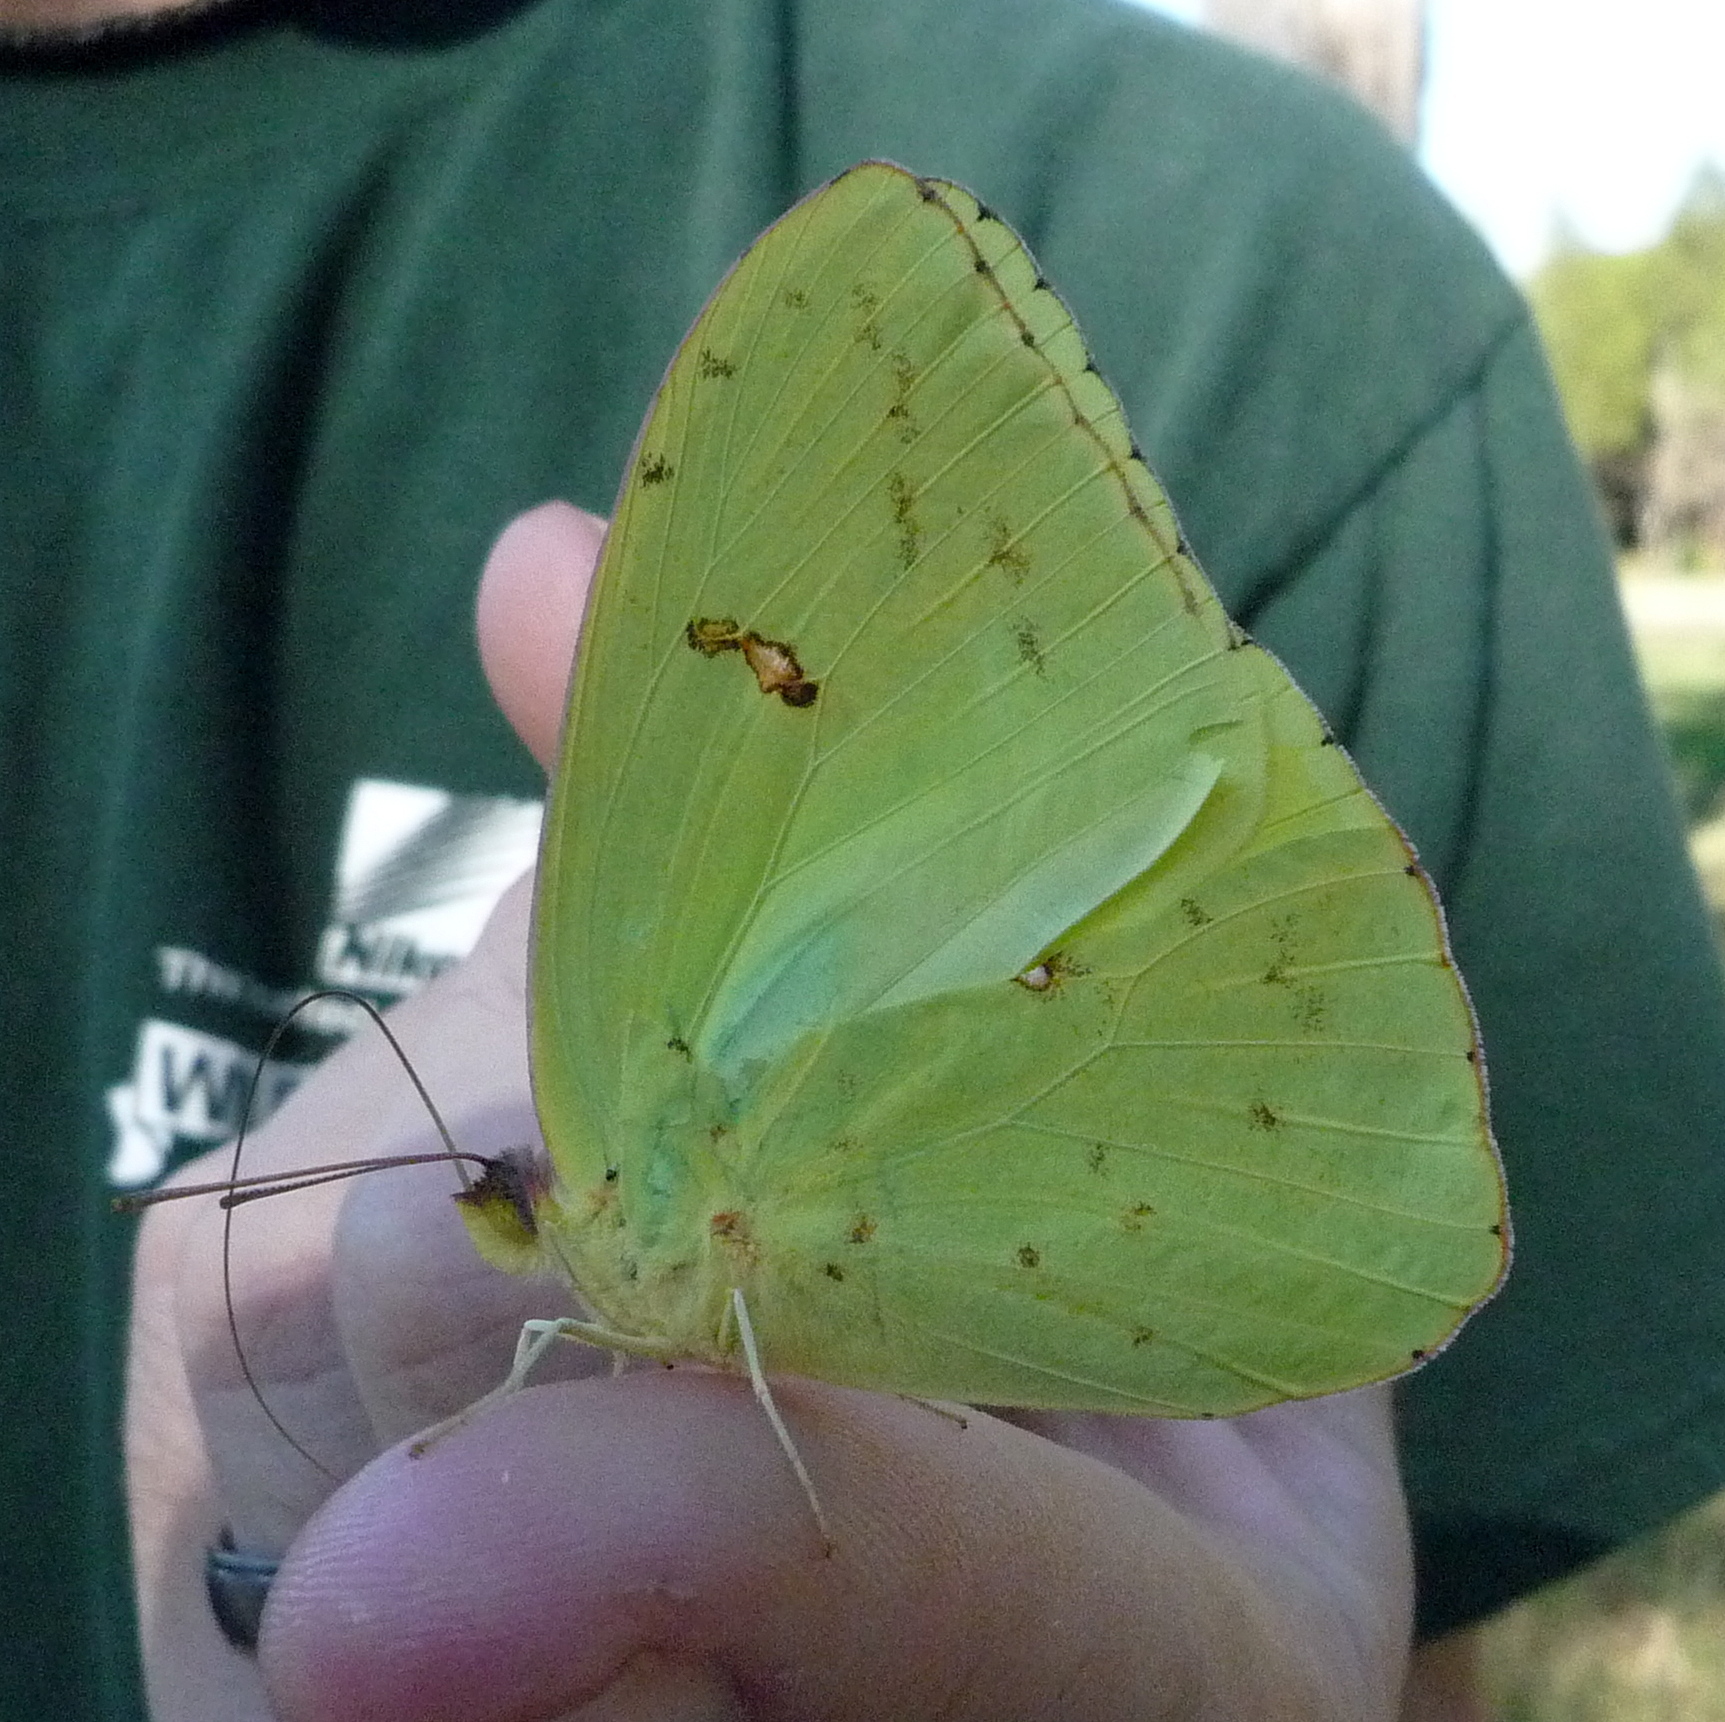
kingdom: Animalia
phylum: Arthropoda
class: Insecta
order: Lepidoptera
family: Pieridae
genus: Phoebis
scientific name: Phoebis sennae
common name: Cloudless sulphur
